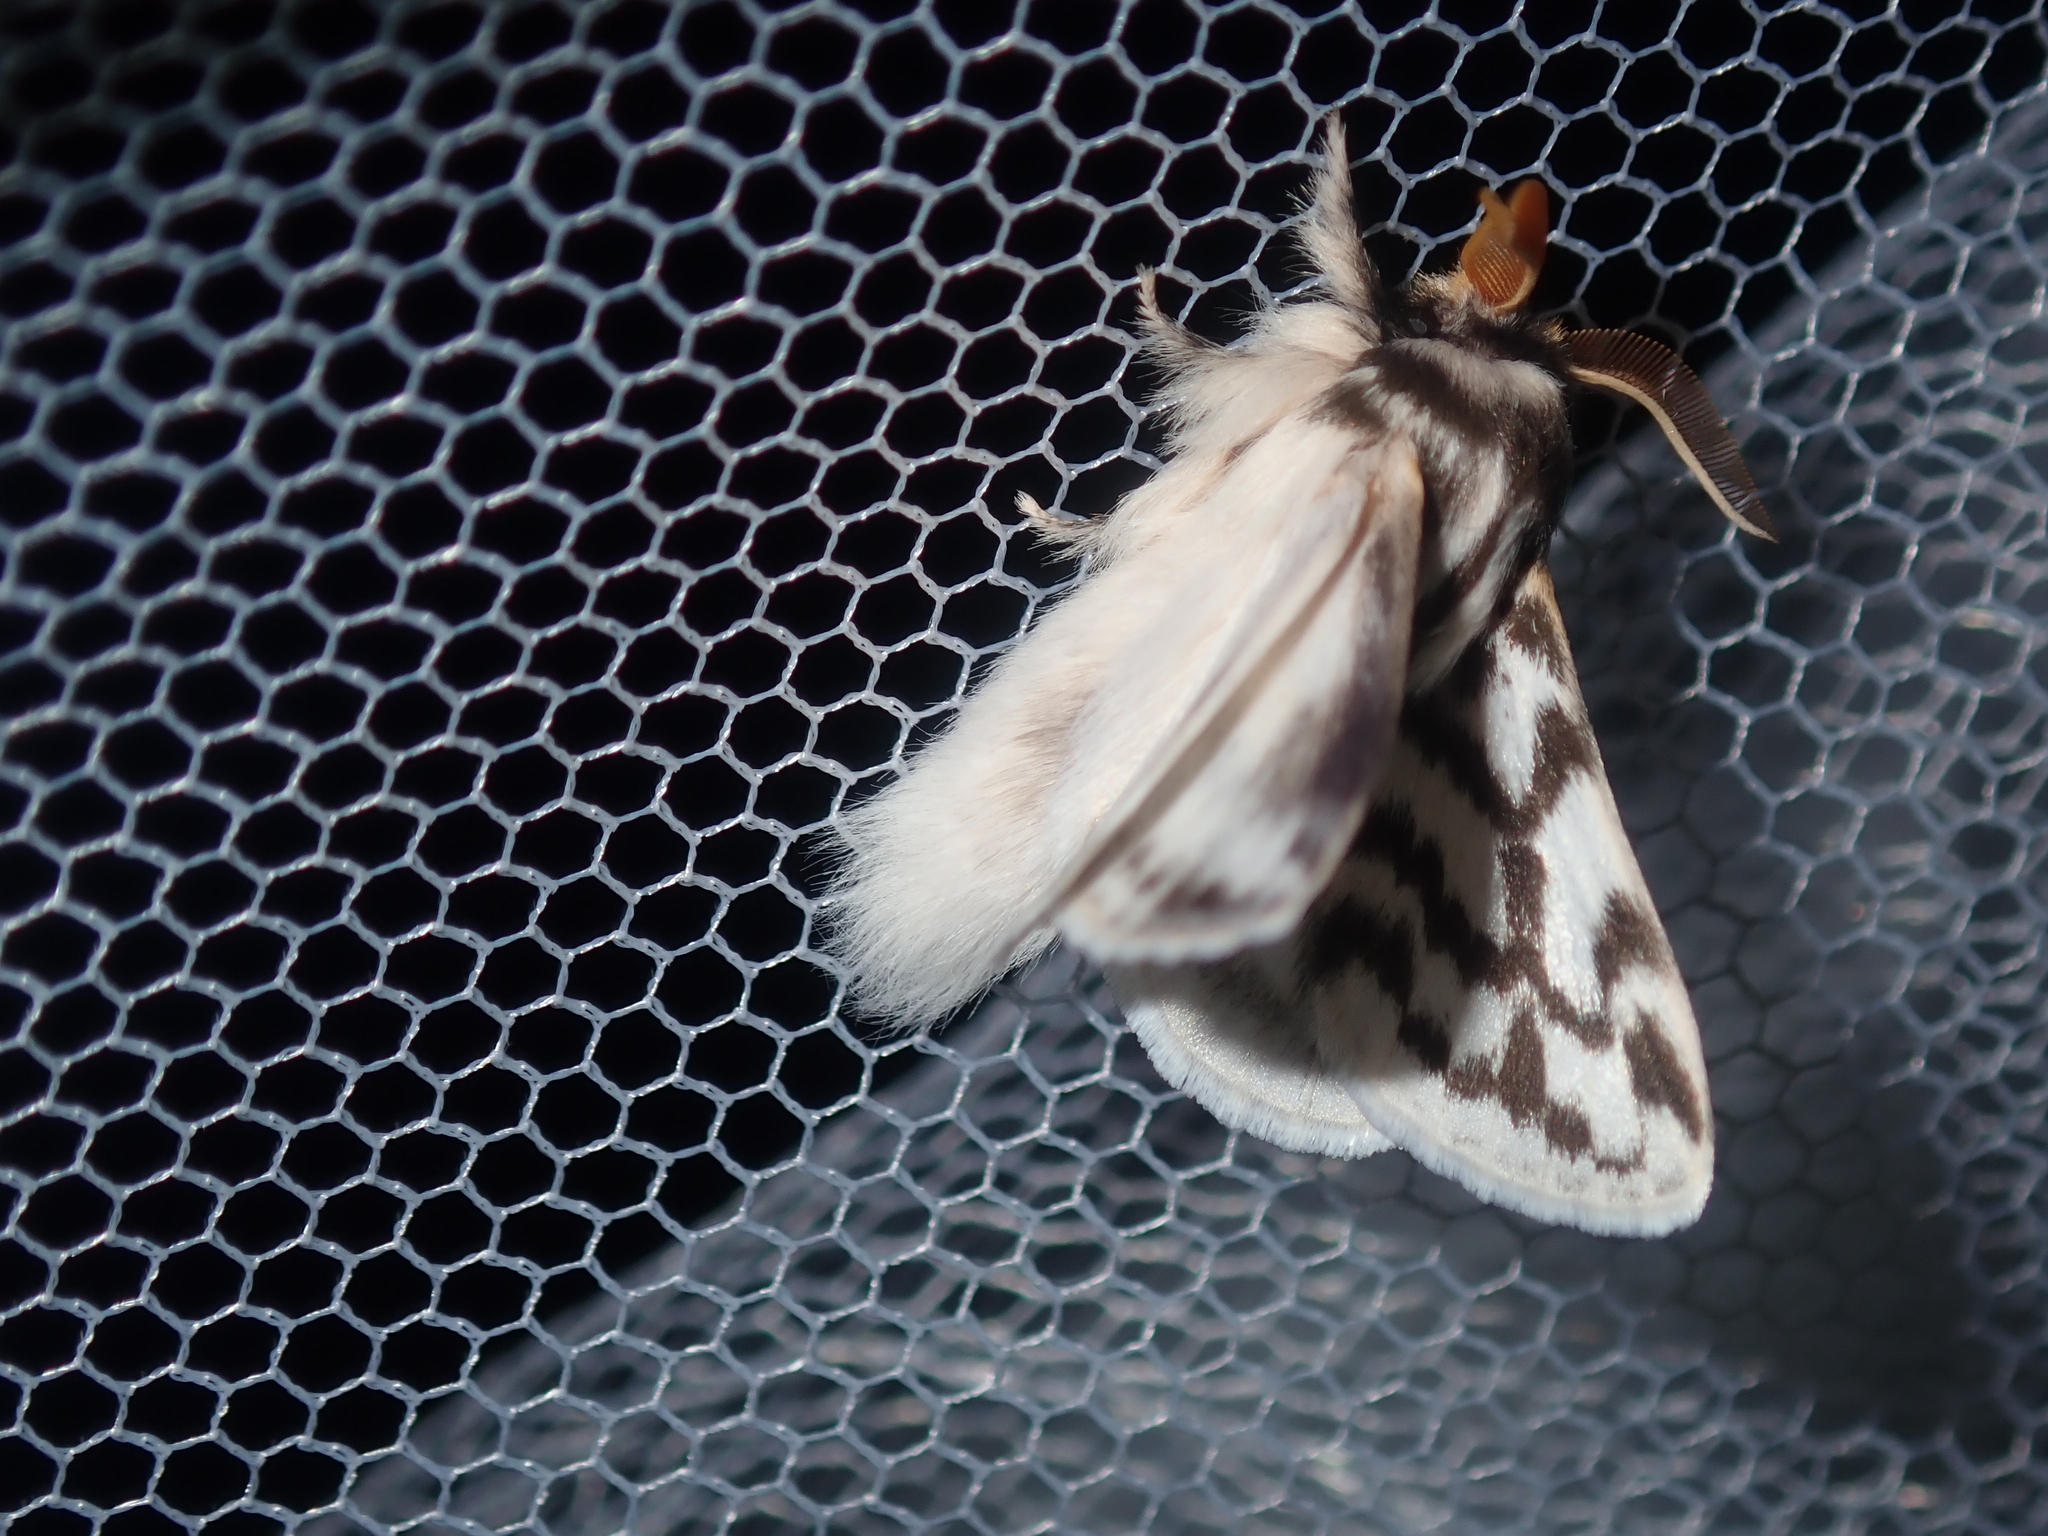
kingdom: Animalia
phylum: Arthropoda
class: Insecta
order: Lepidoptera
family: Lasiocampidae
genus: Pernattia
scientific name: Pernattia chlorophragma
